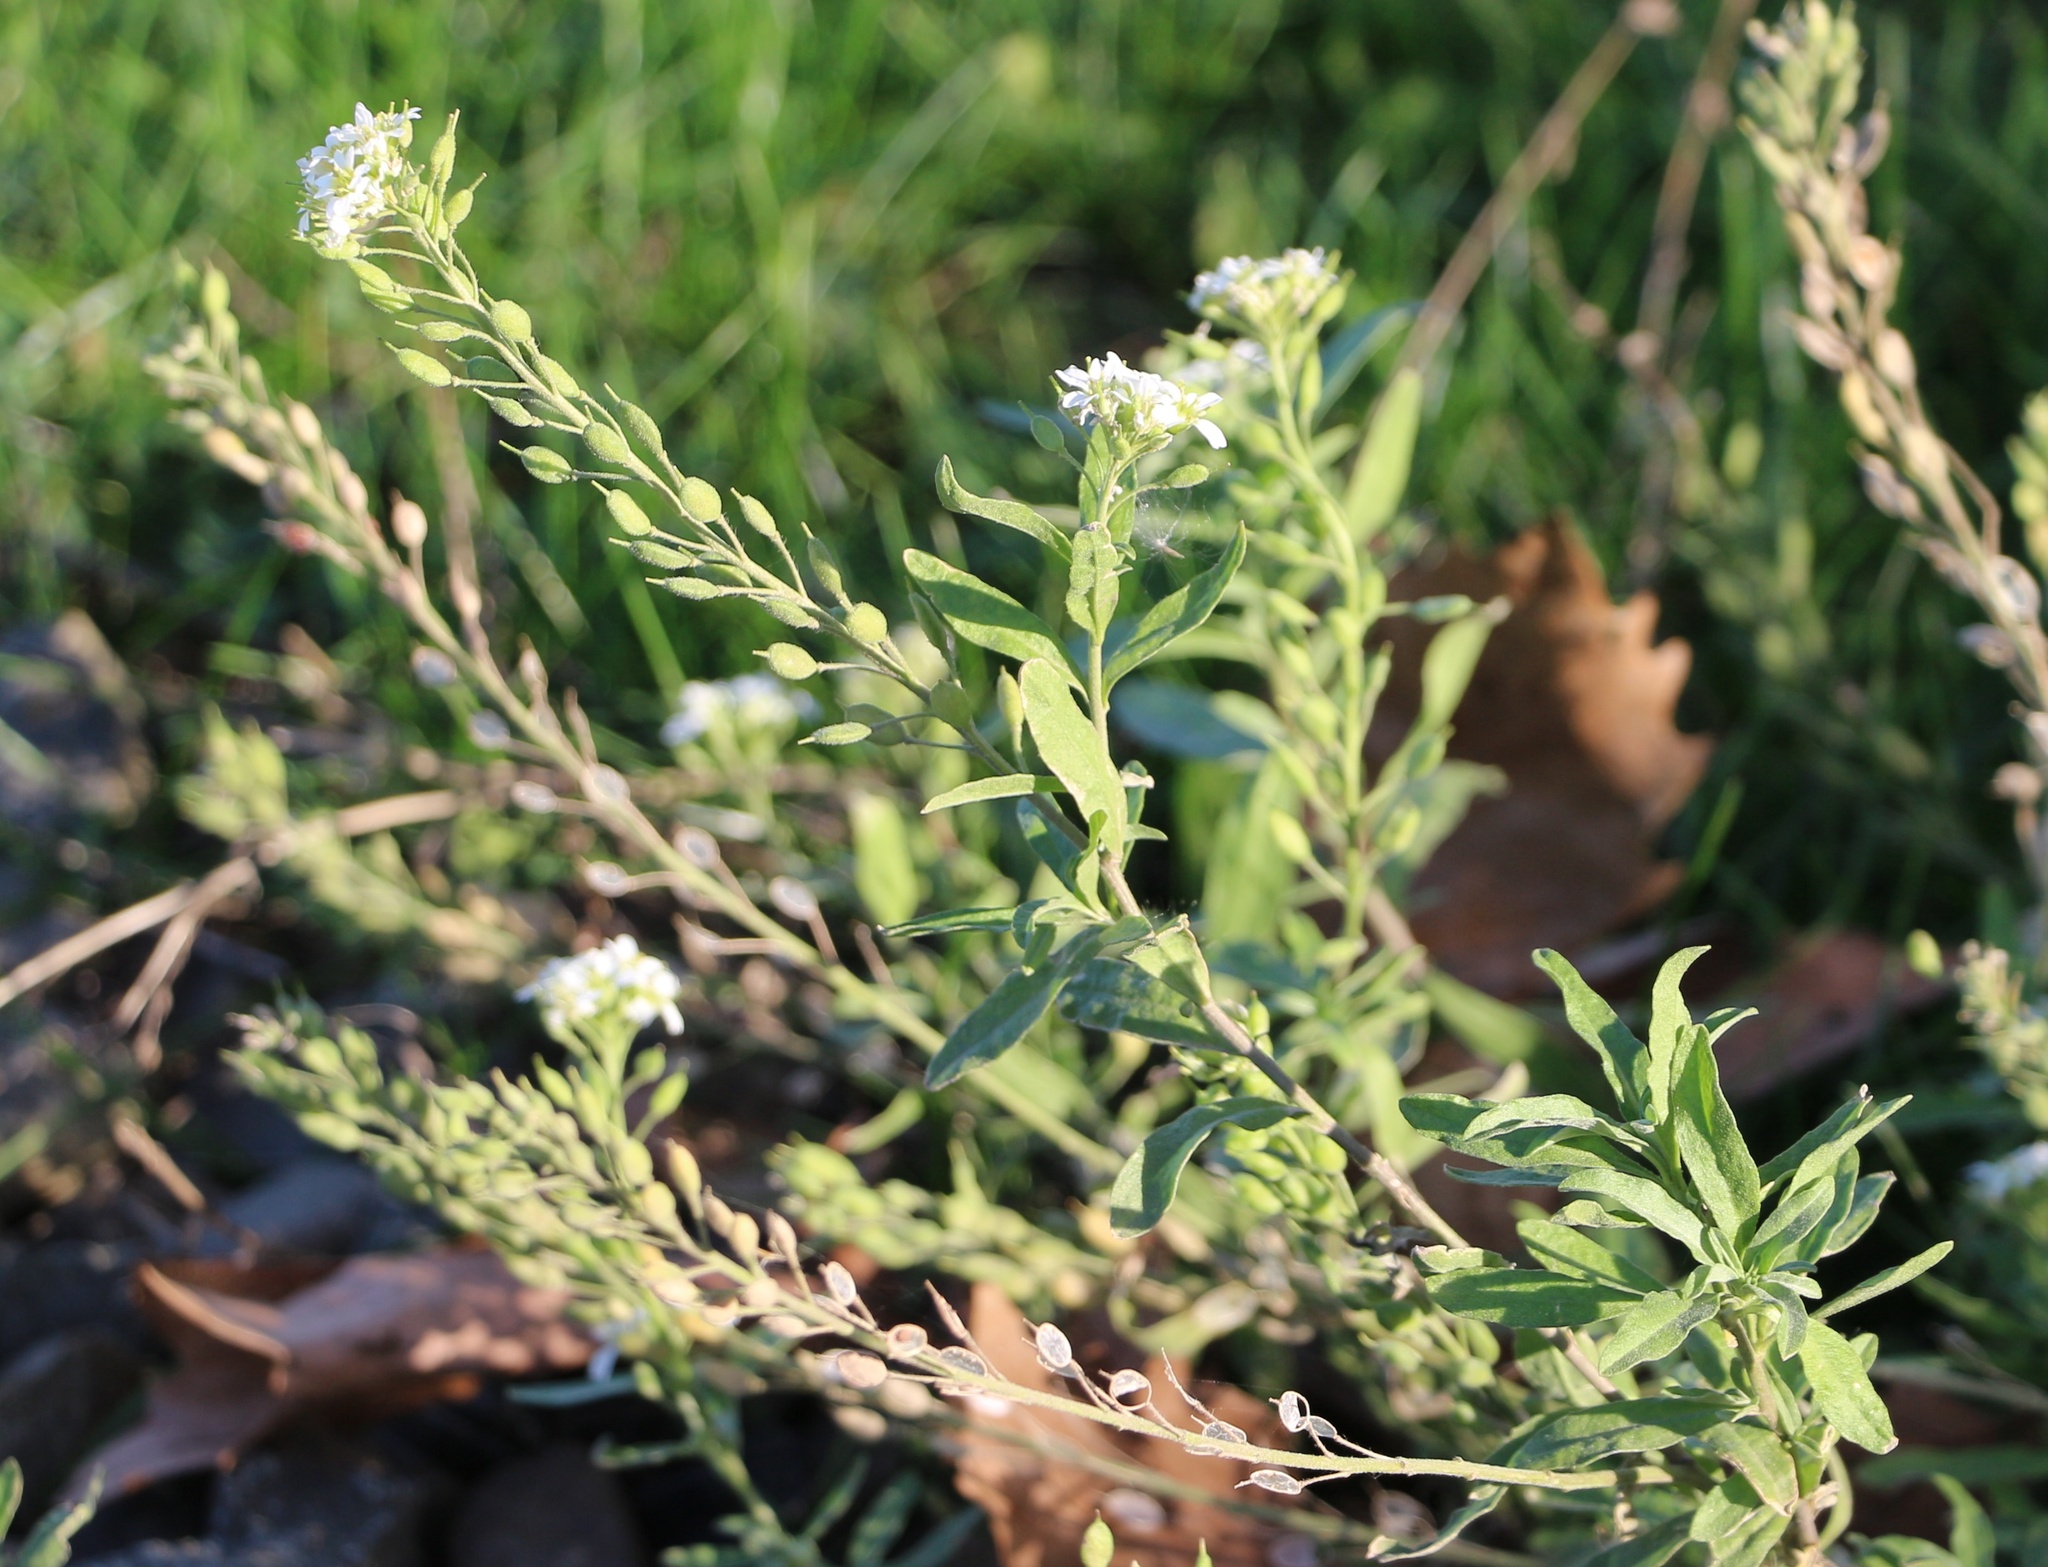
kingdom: Plantae
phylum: Tracheophyta
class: Magnoliopsida
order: Brassicales
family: Brassicaceae
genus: Berteroa
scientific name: Berteroa incana
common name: Hoary alison
